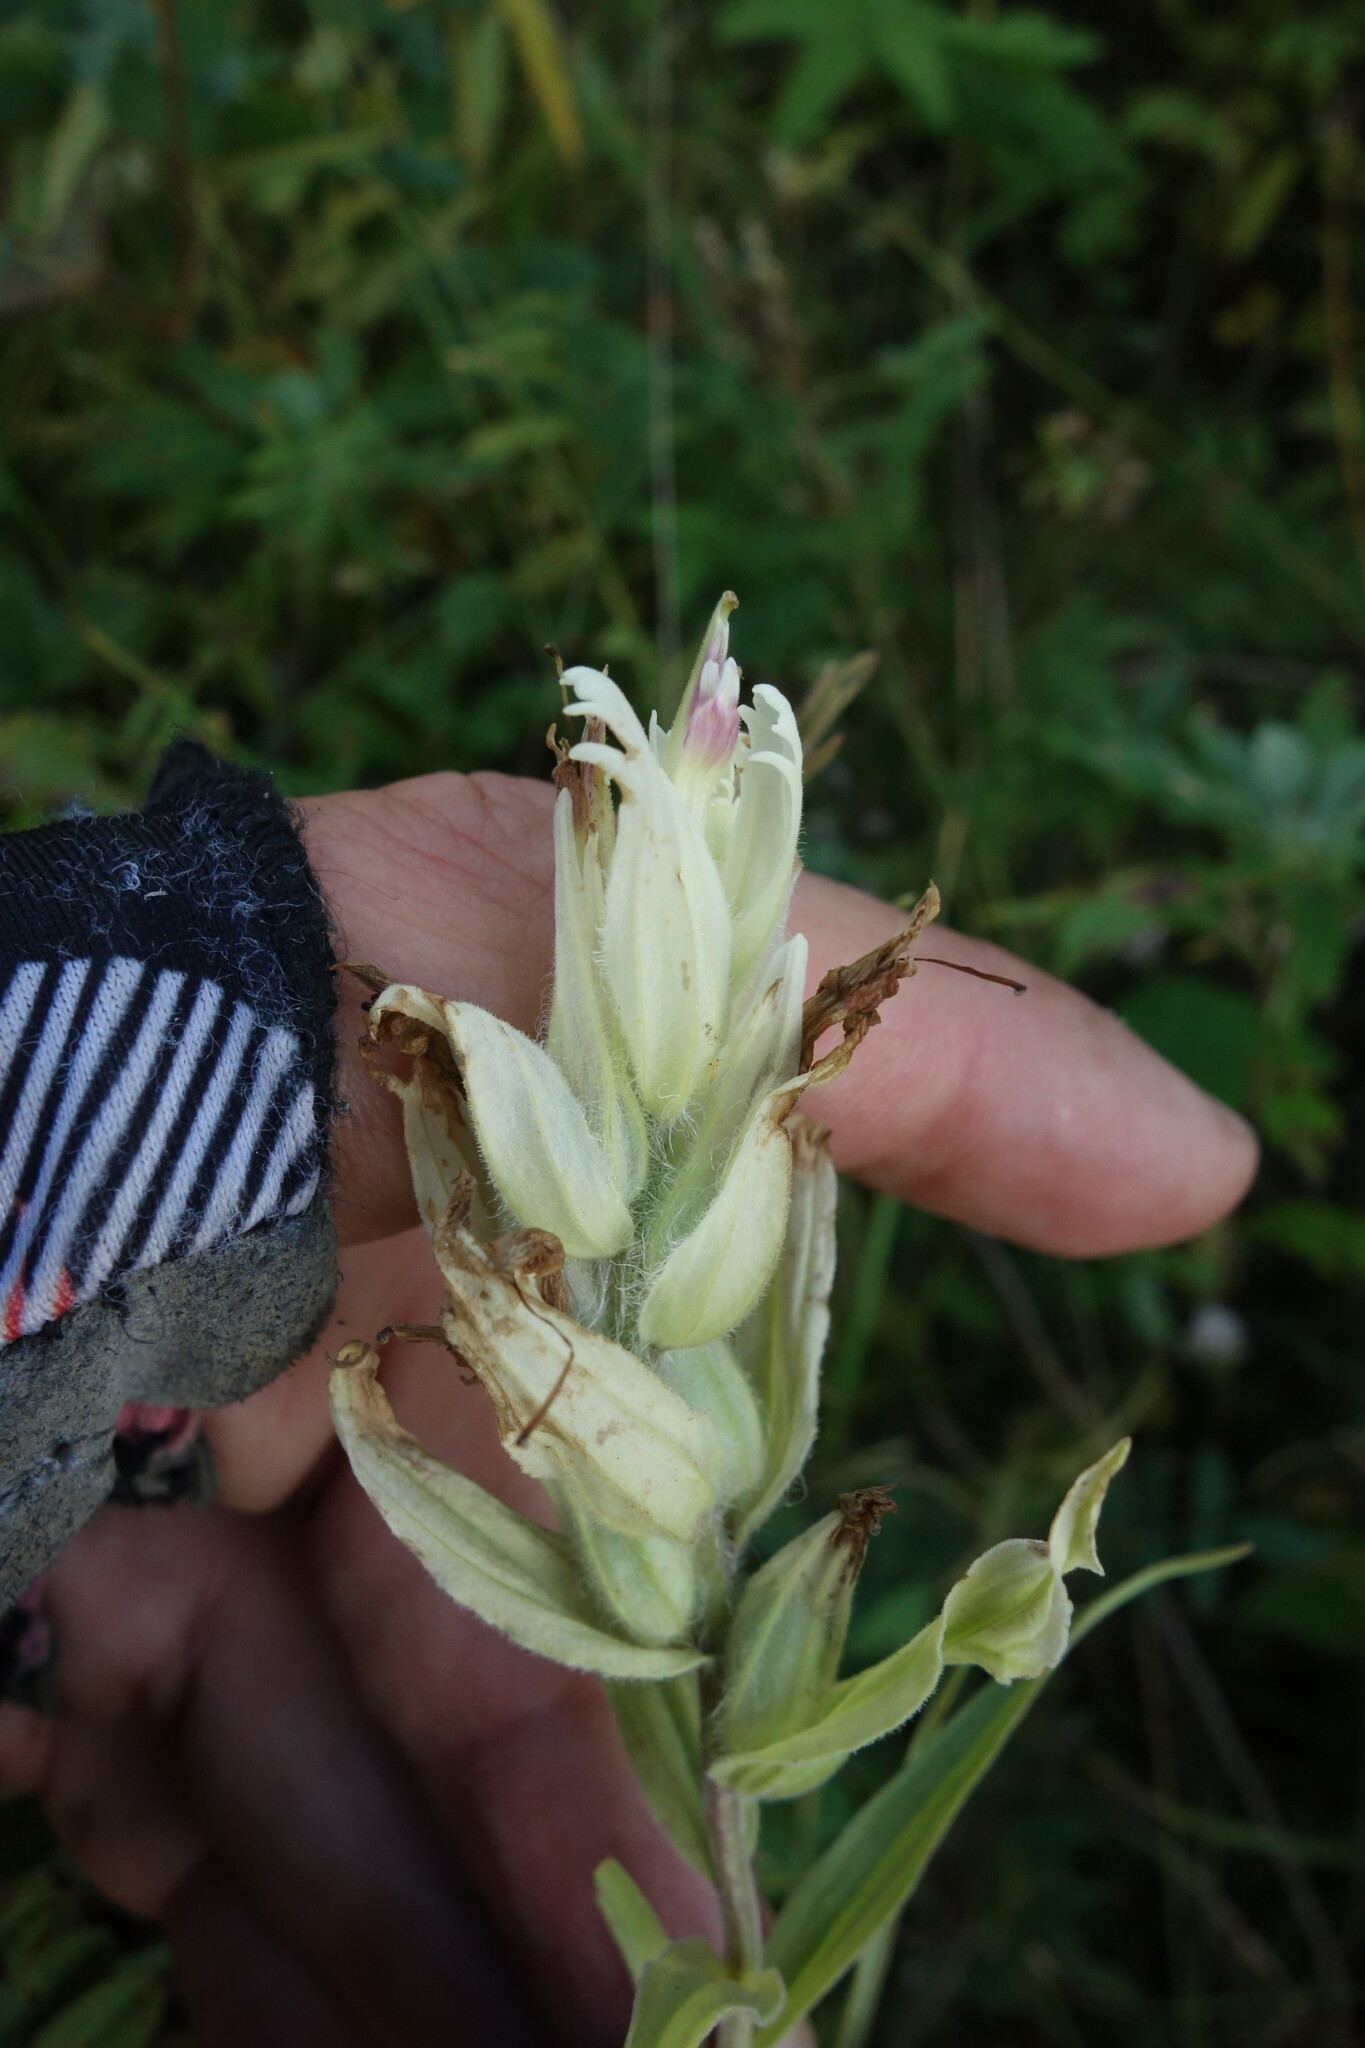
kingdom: Plantae
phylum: Tracheophyta
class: Magnoliopsida
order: Lamiales
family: Orobanchaceae
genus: Castilleja
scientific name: Castilleja pallida
